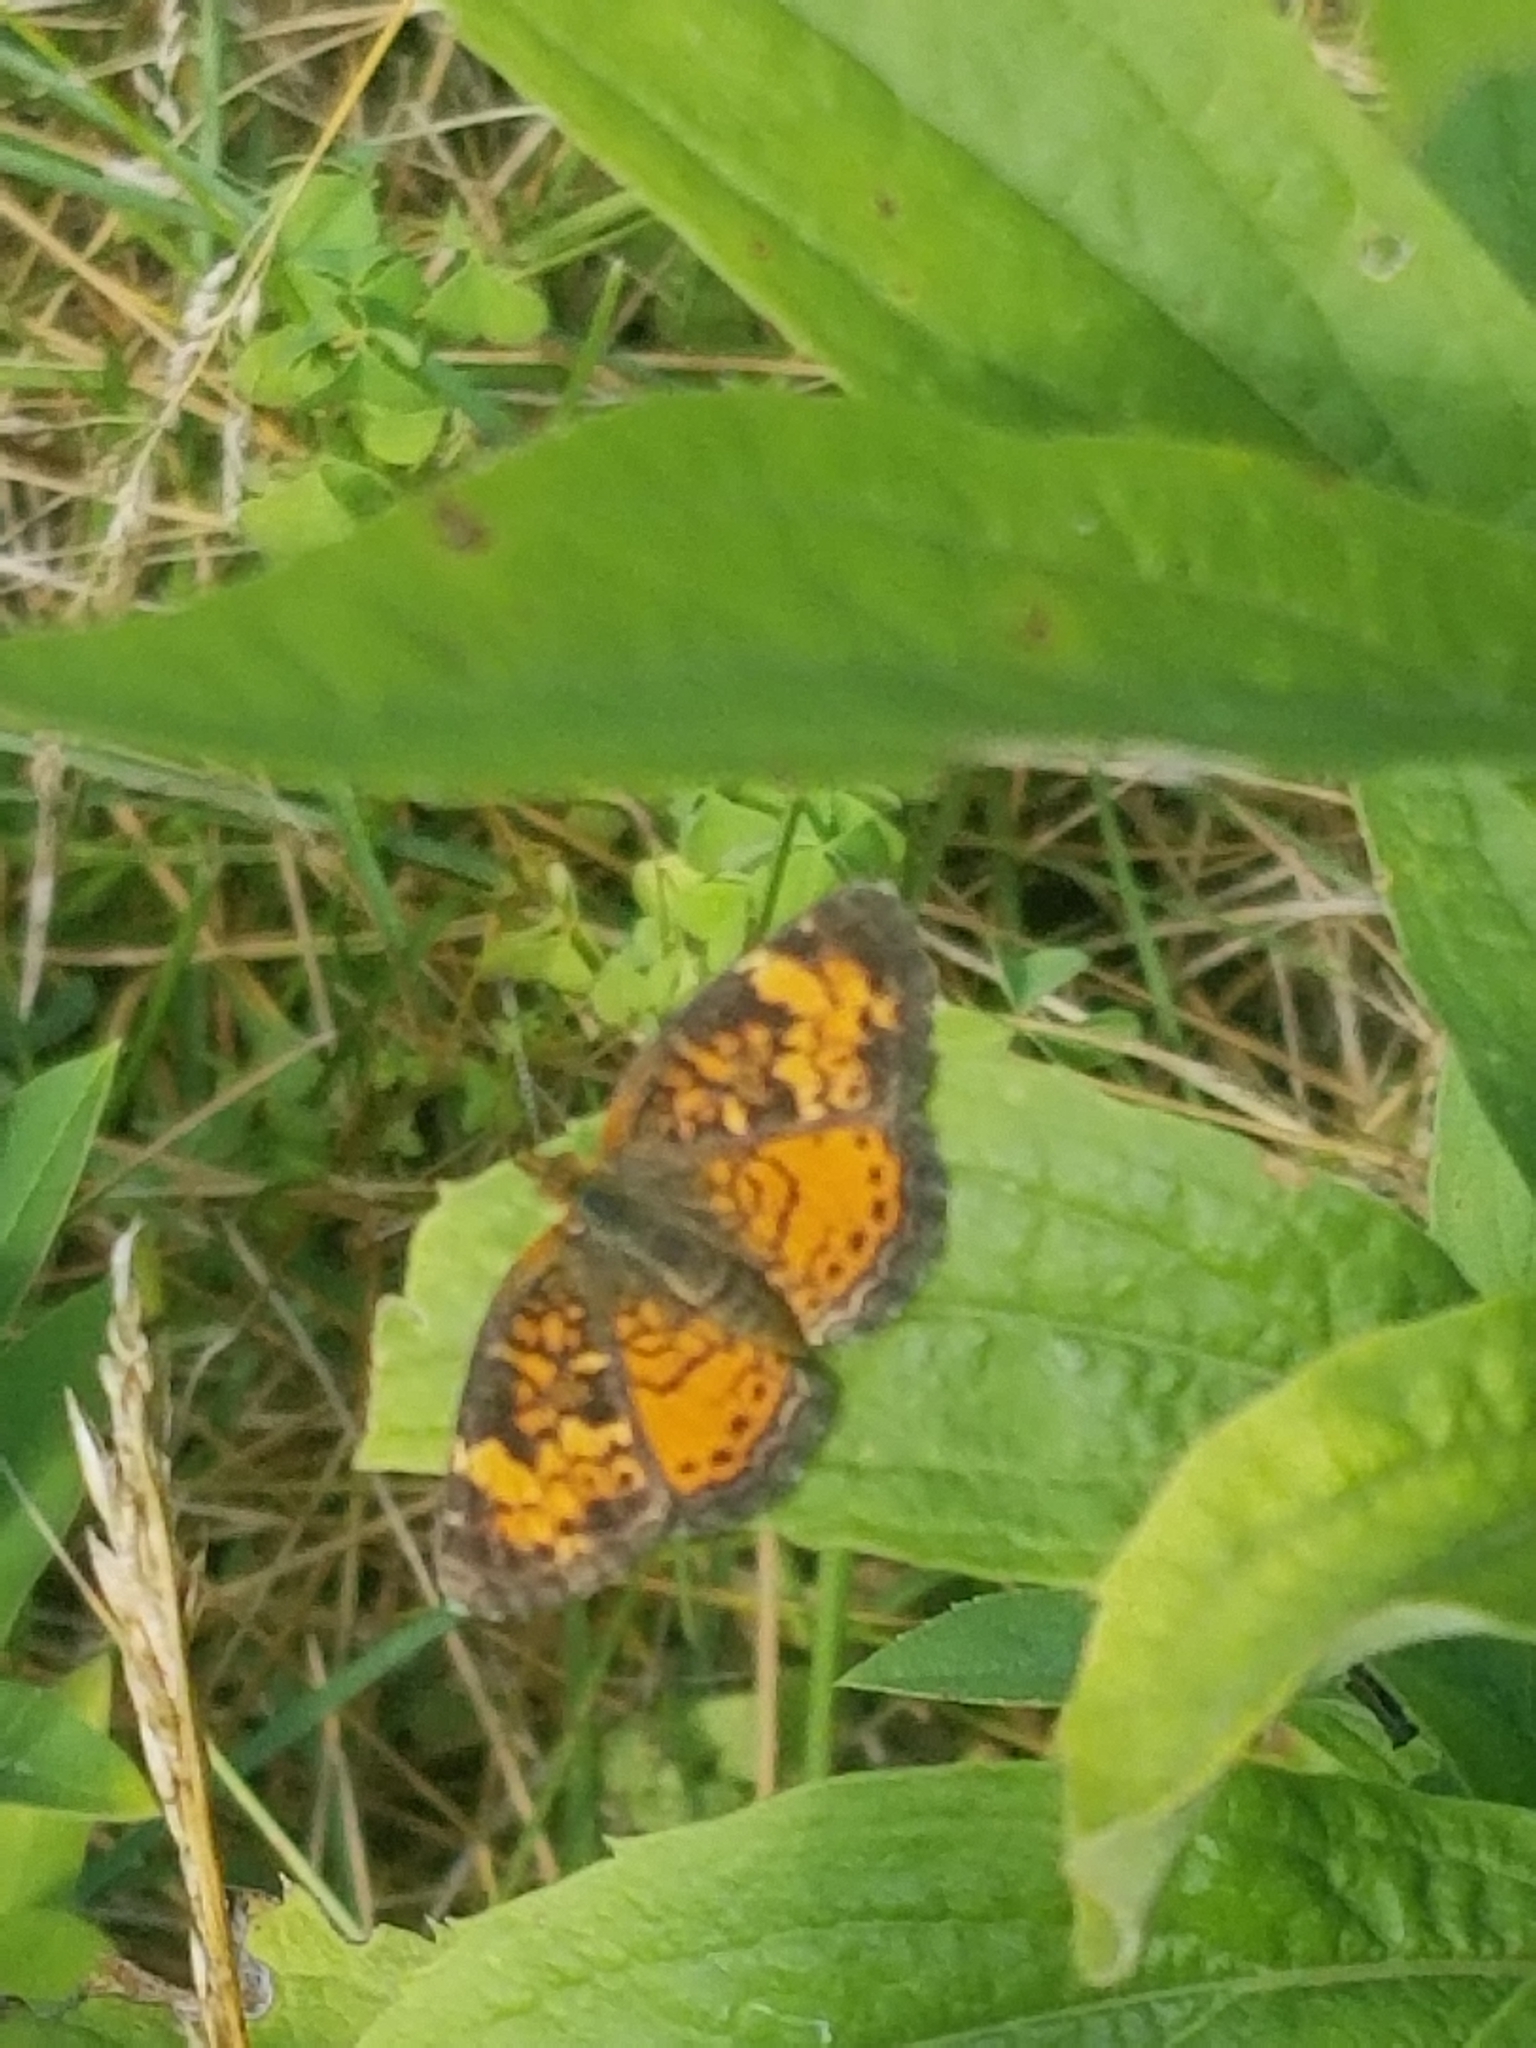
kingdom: Animalia
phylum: Arthropoda
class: Insecta
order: Lepidoptera
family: Nymphalidae
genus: Phyciodes
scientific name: Phyciodes tharos
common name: Pearl crescent
